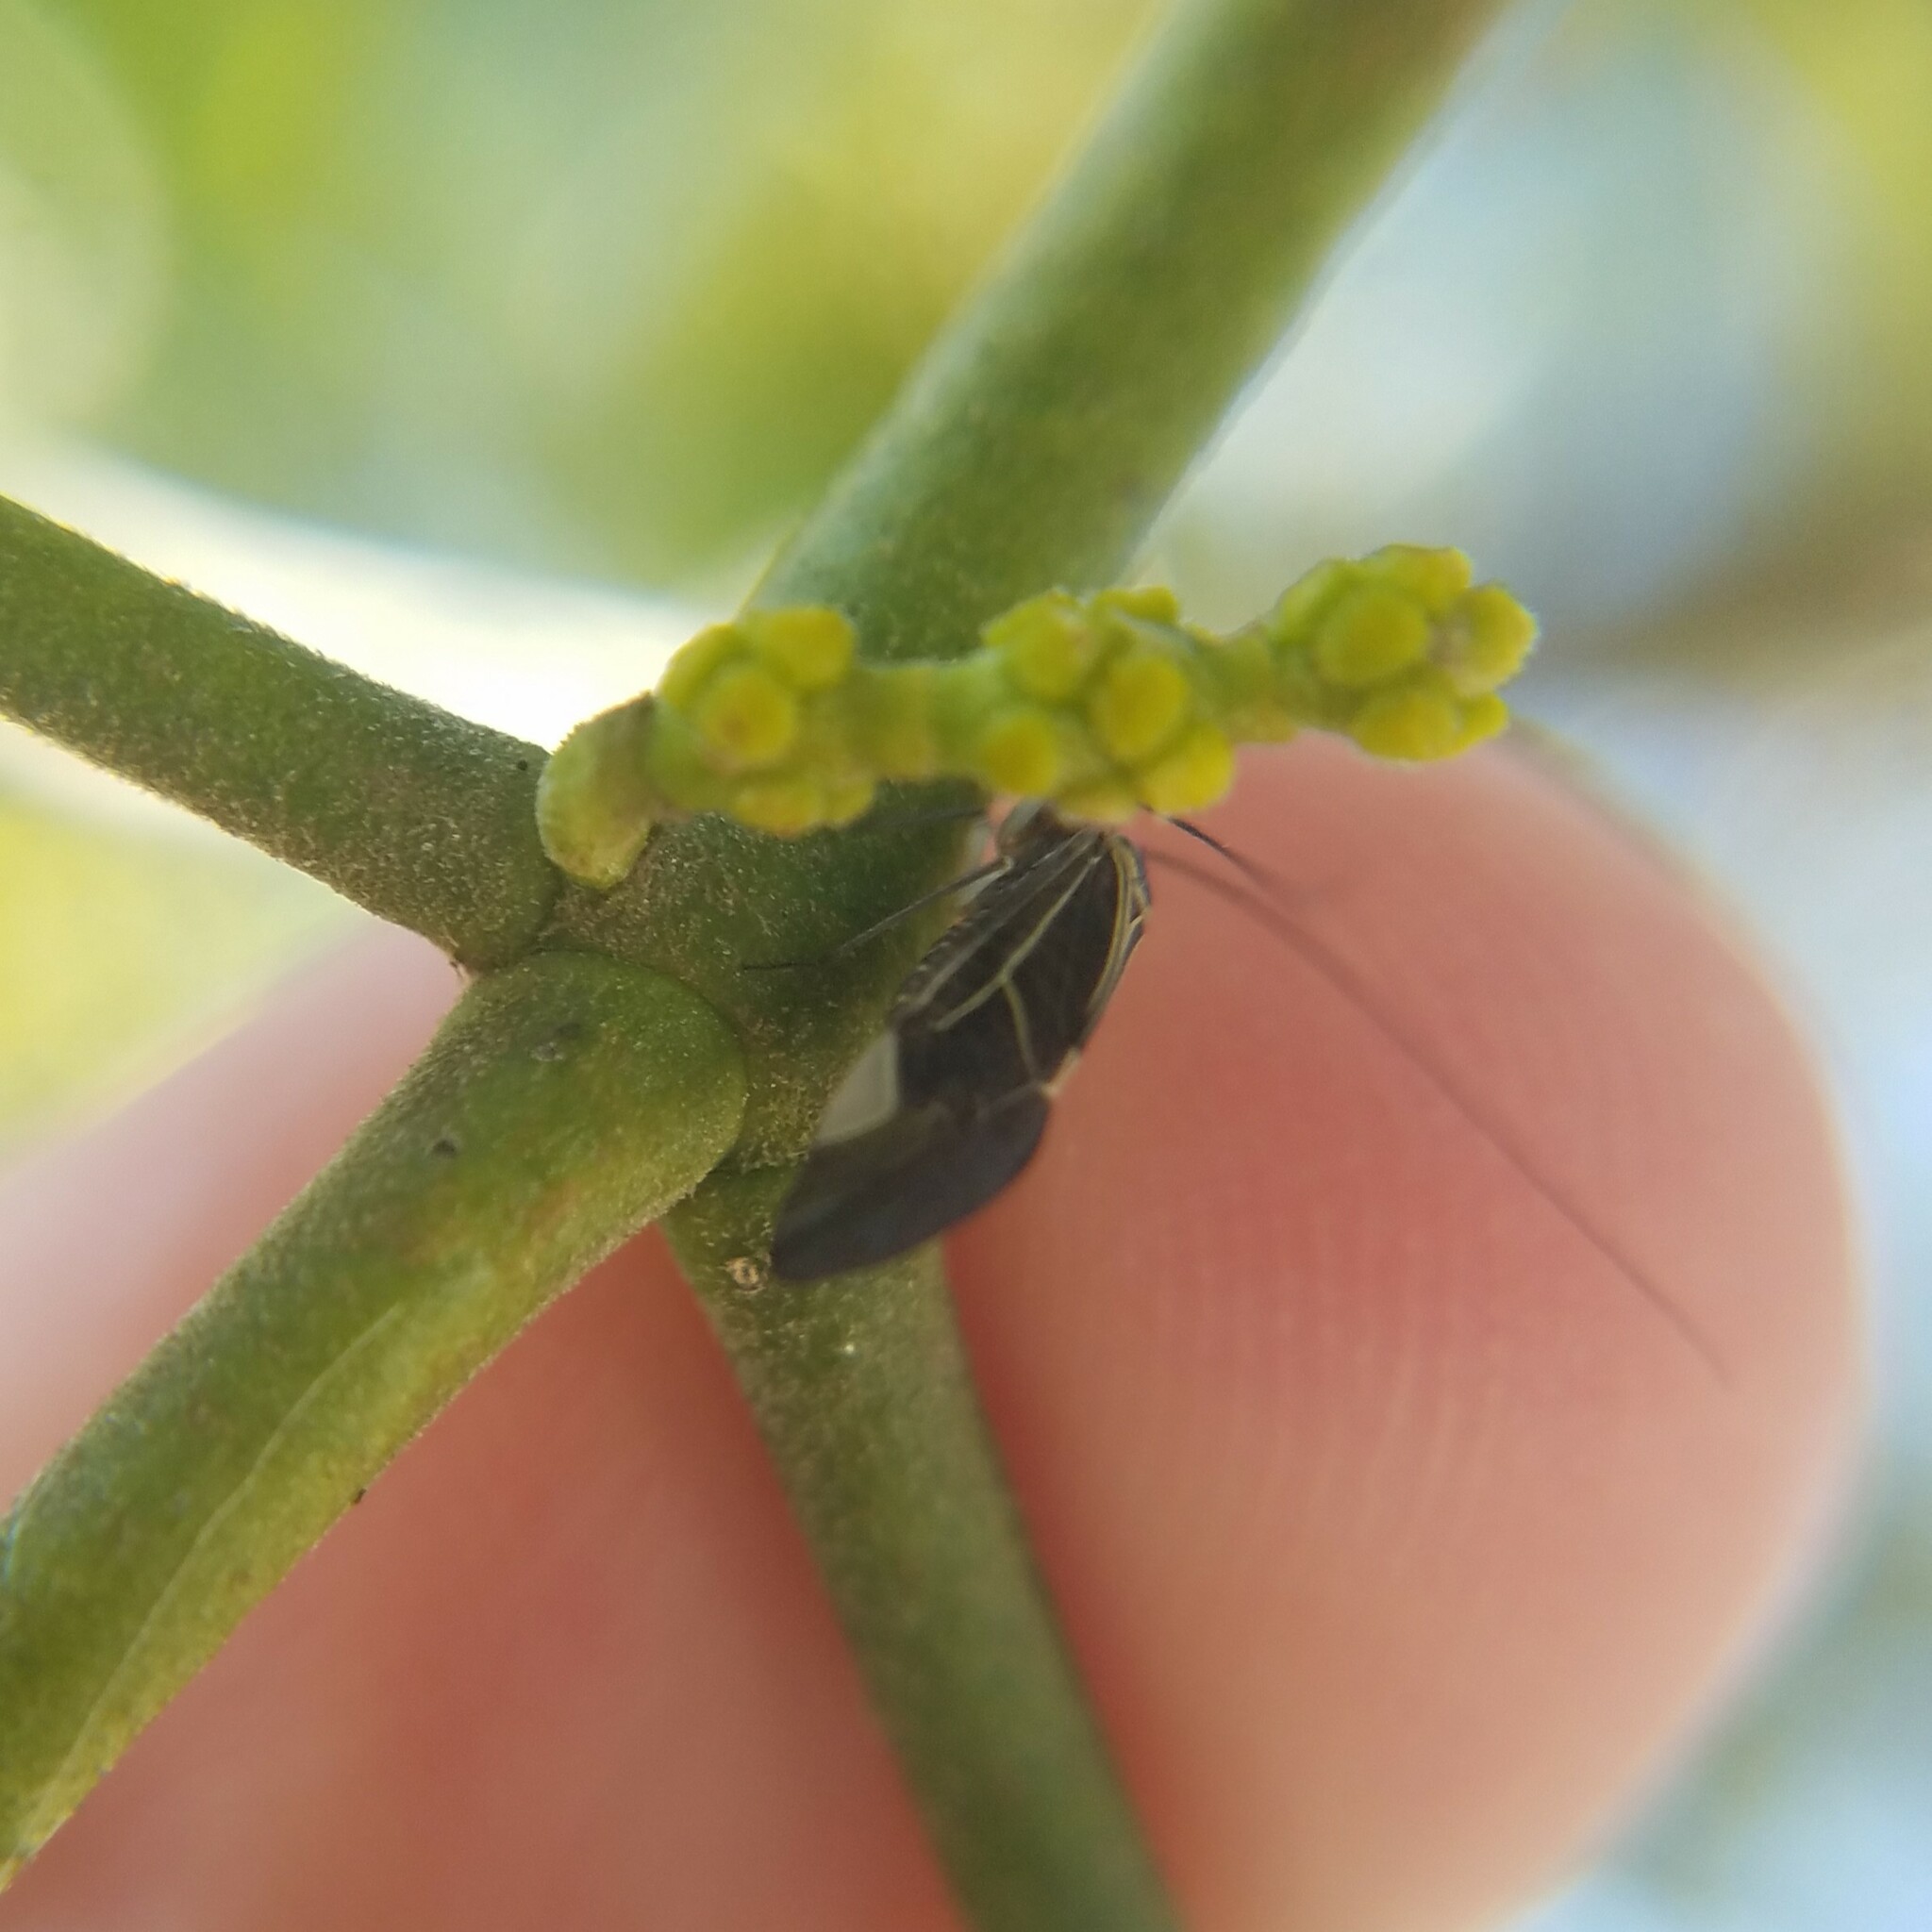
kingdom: Animalia
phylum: Arthropoda
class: Insecta
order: Psocodea
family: Psocidae
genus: Cerastipsocus
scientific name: Cerastipsocus venosus
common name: Tree cattle
